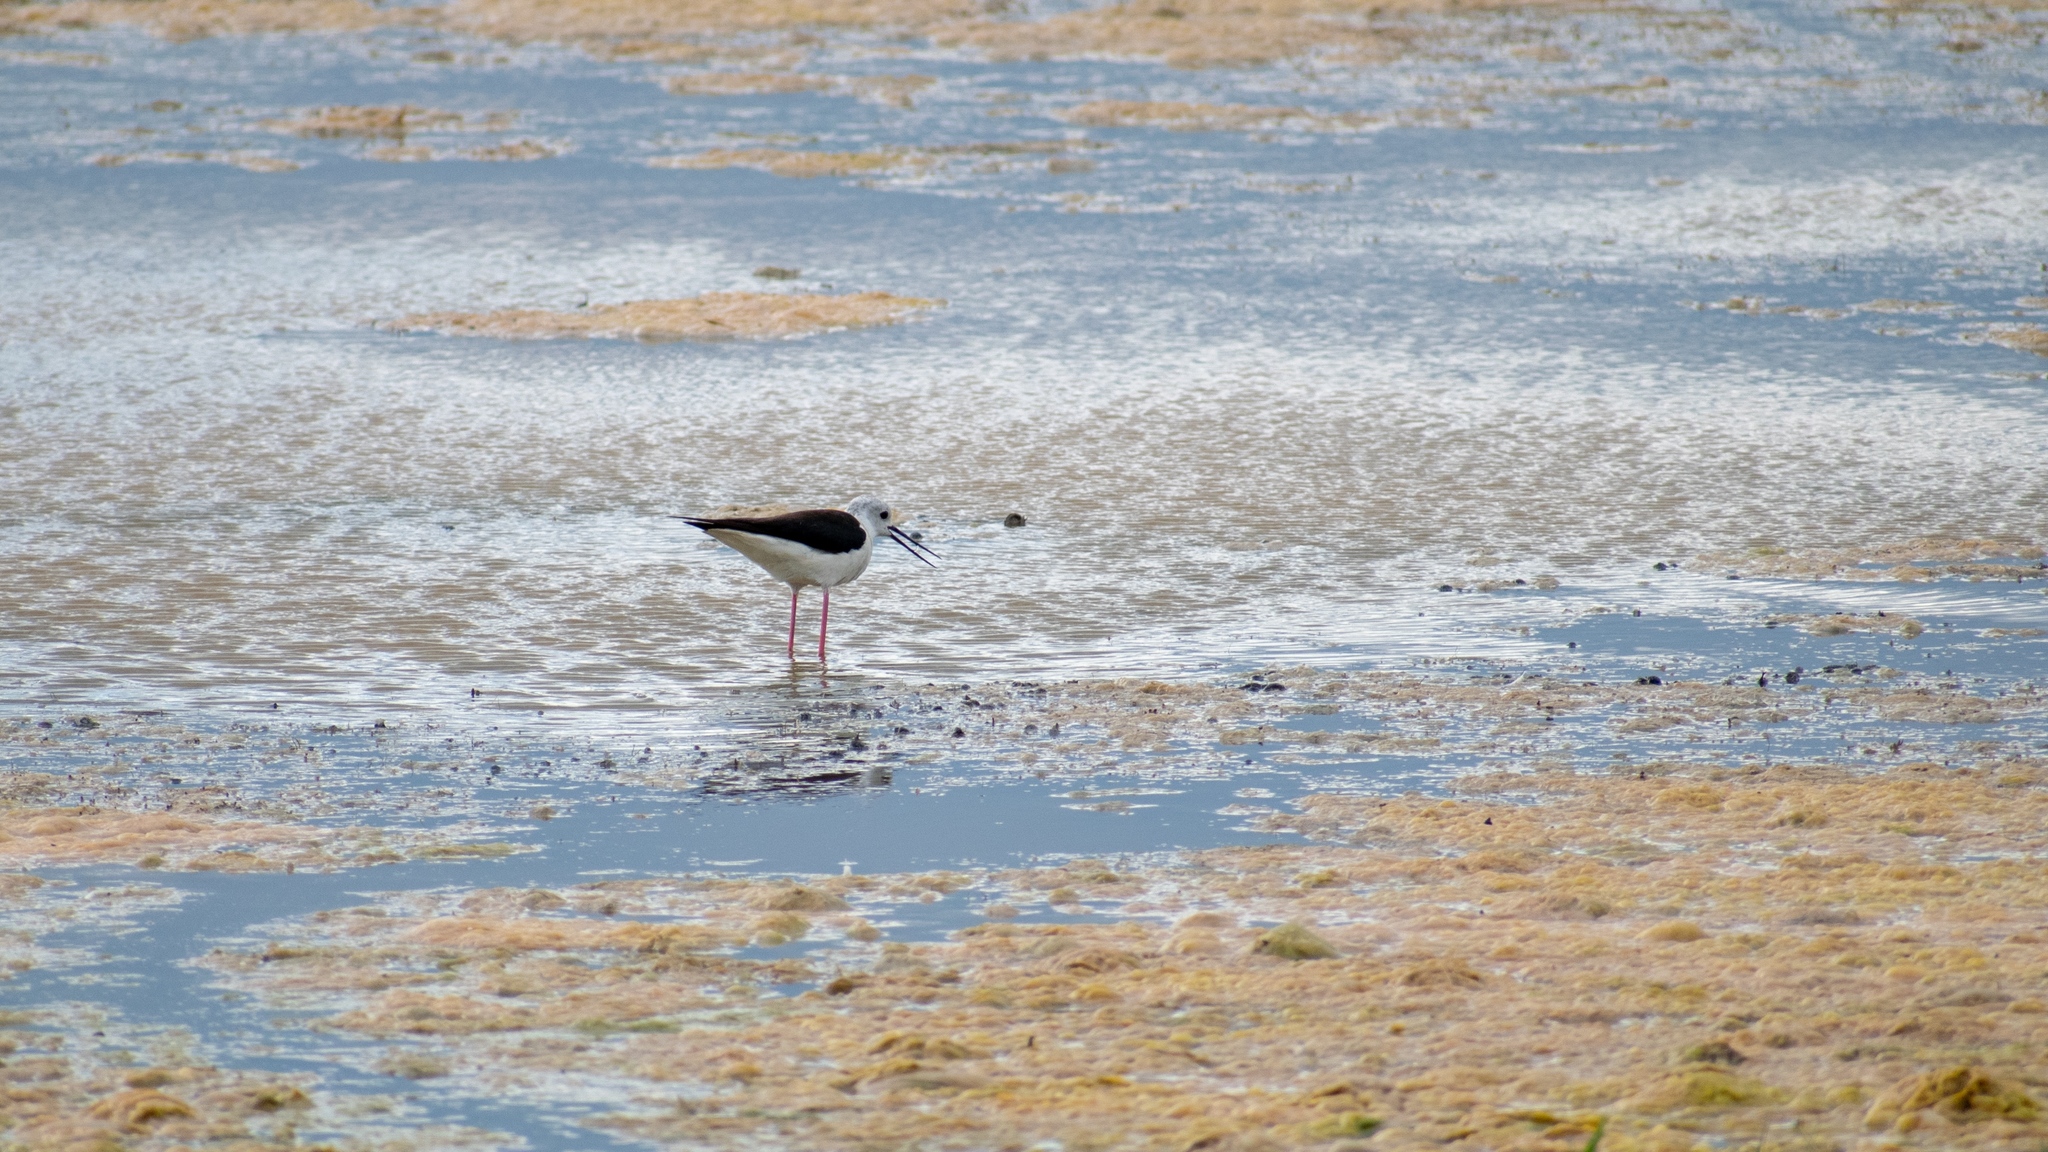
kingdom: Animalia
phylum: Chordata
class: Aves
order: Charadriiformes
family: Recurvirostridae
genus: Himantopus
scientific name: Himantopus himantopus
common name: Black-winged stilt
